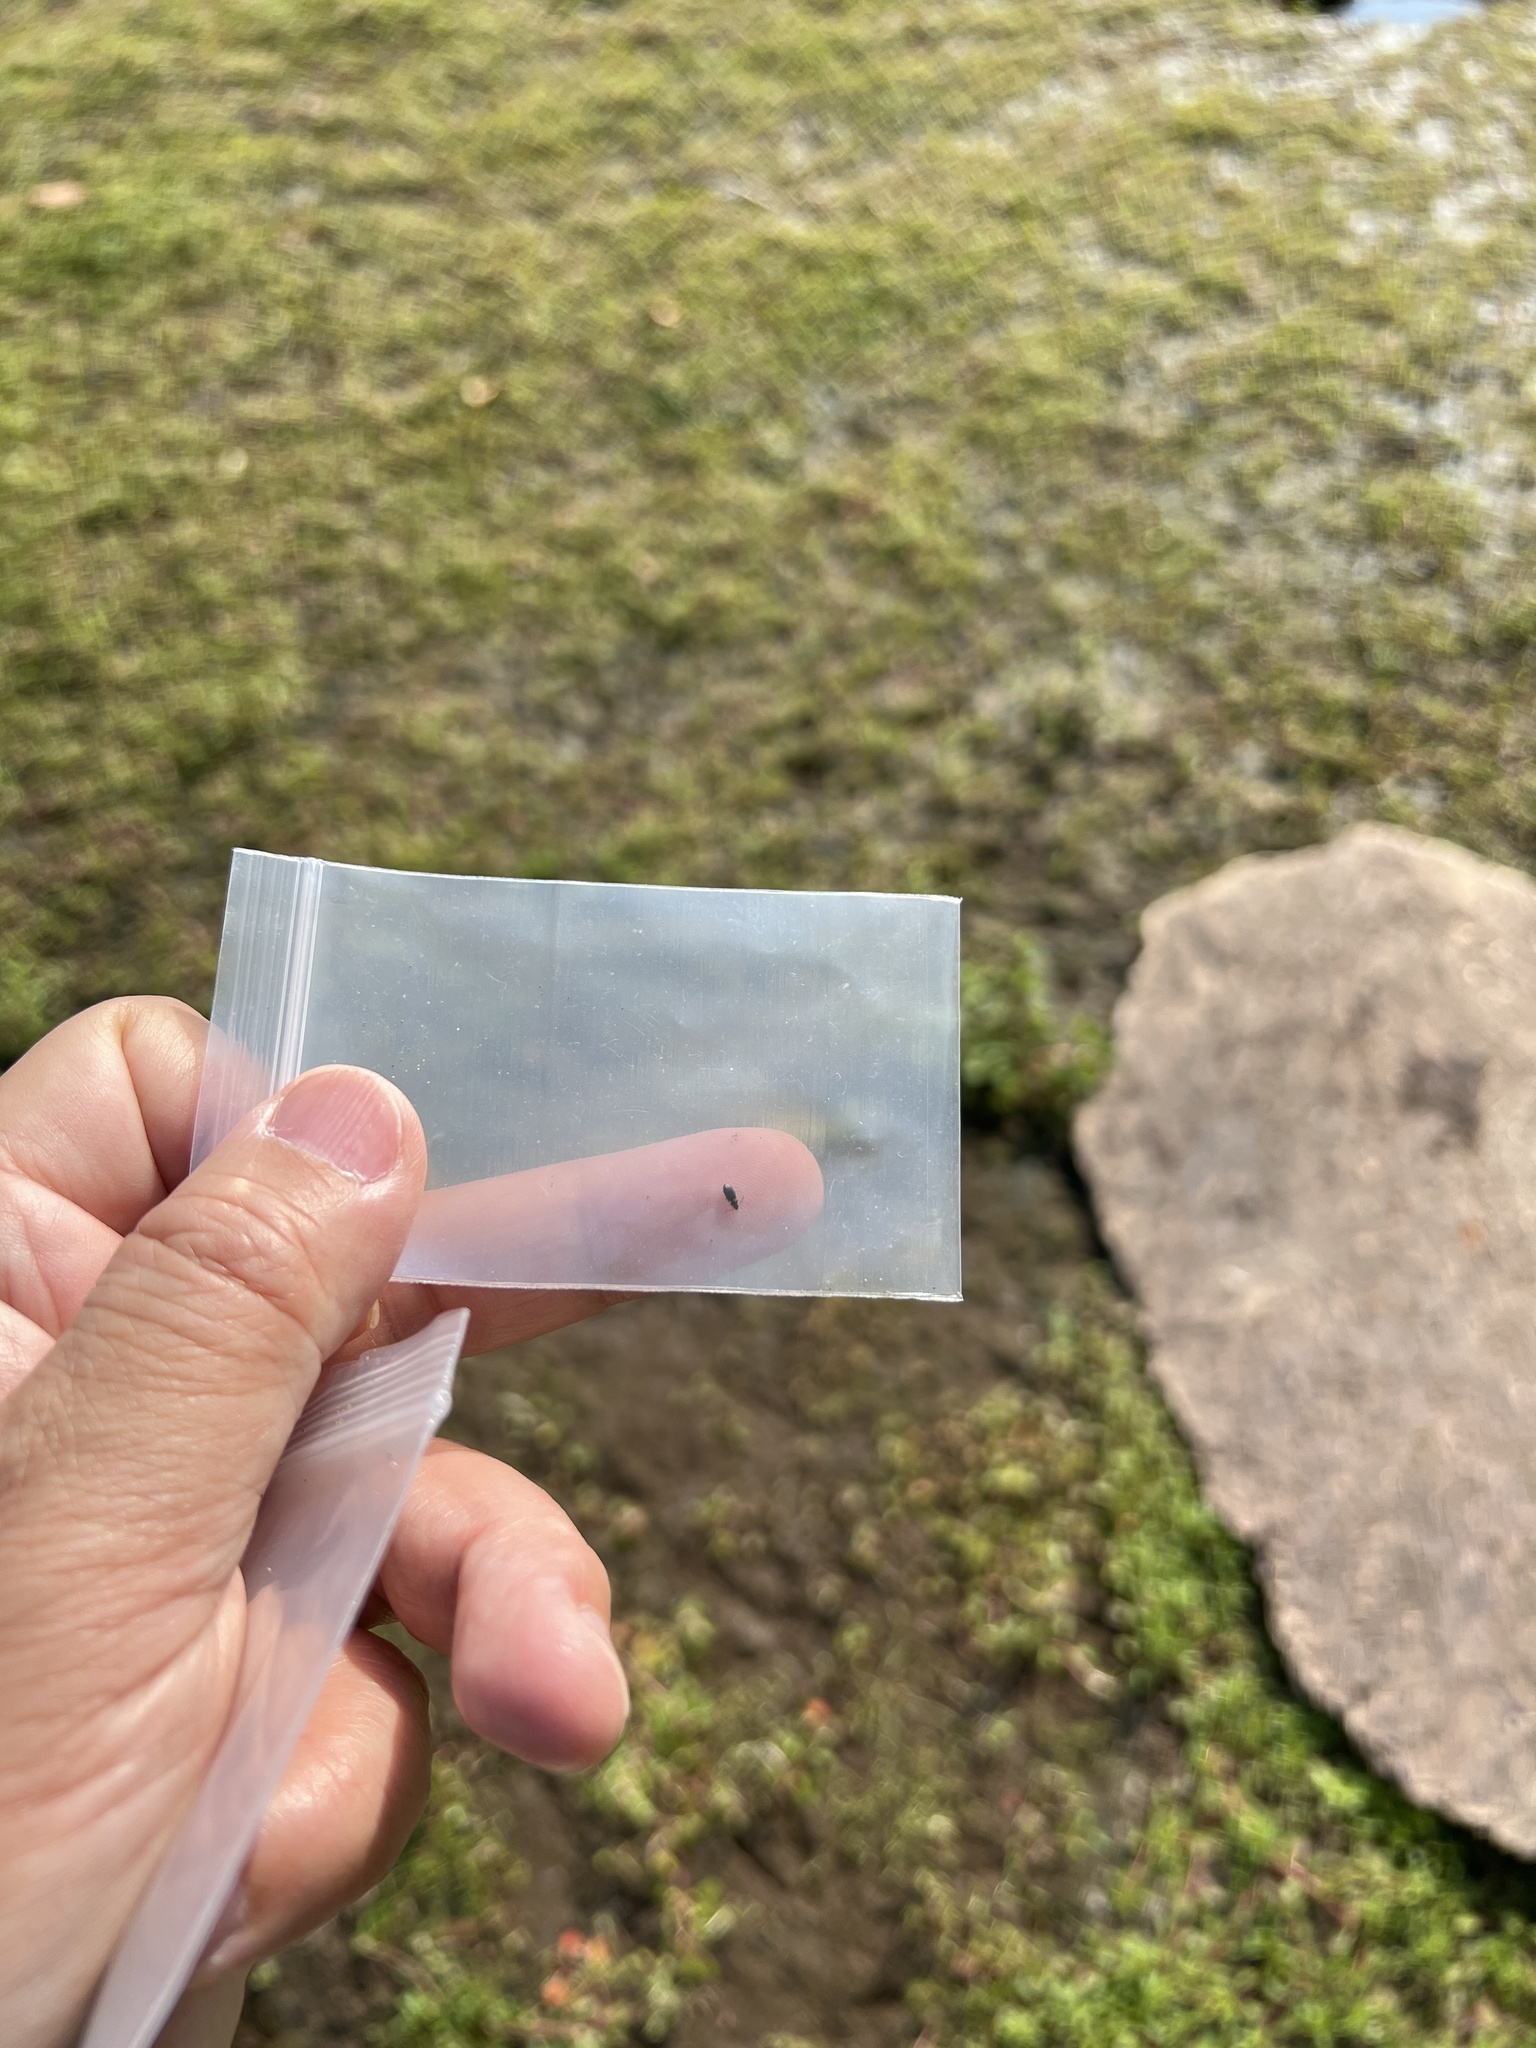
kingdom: Animalia
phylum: Arthropoda
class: Insecta
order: Coleoptera
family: Carabidae
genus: Elaphropus
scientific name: Elaphropus parvulus
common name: Dwarf riverbank ground beetle
